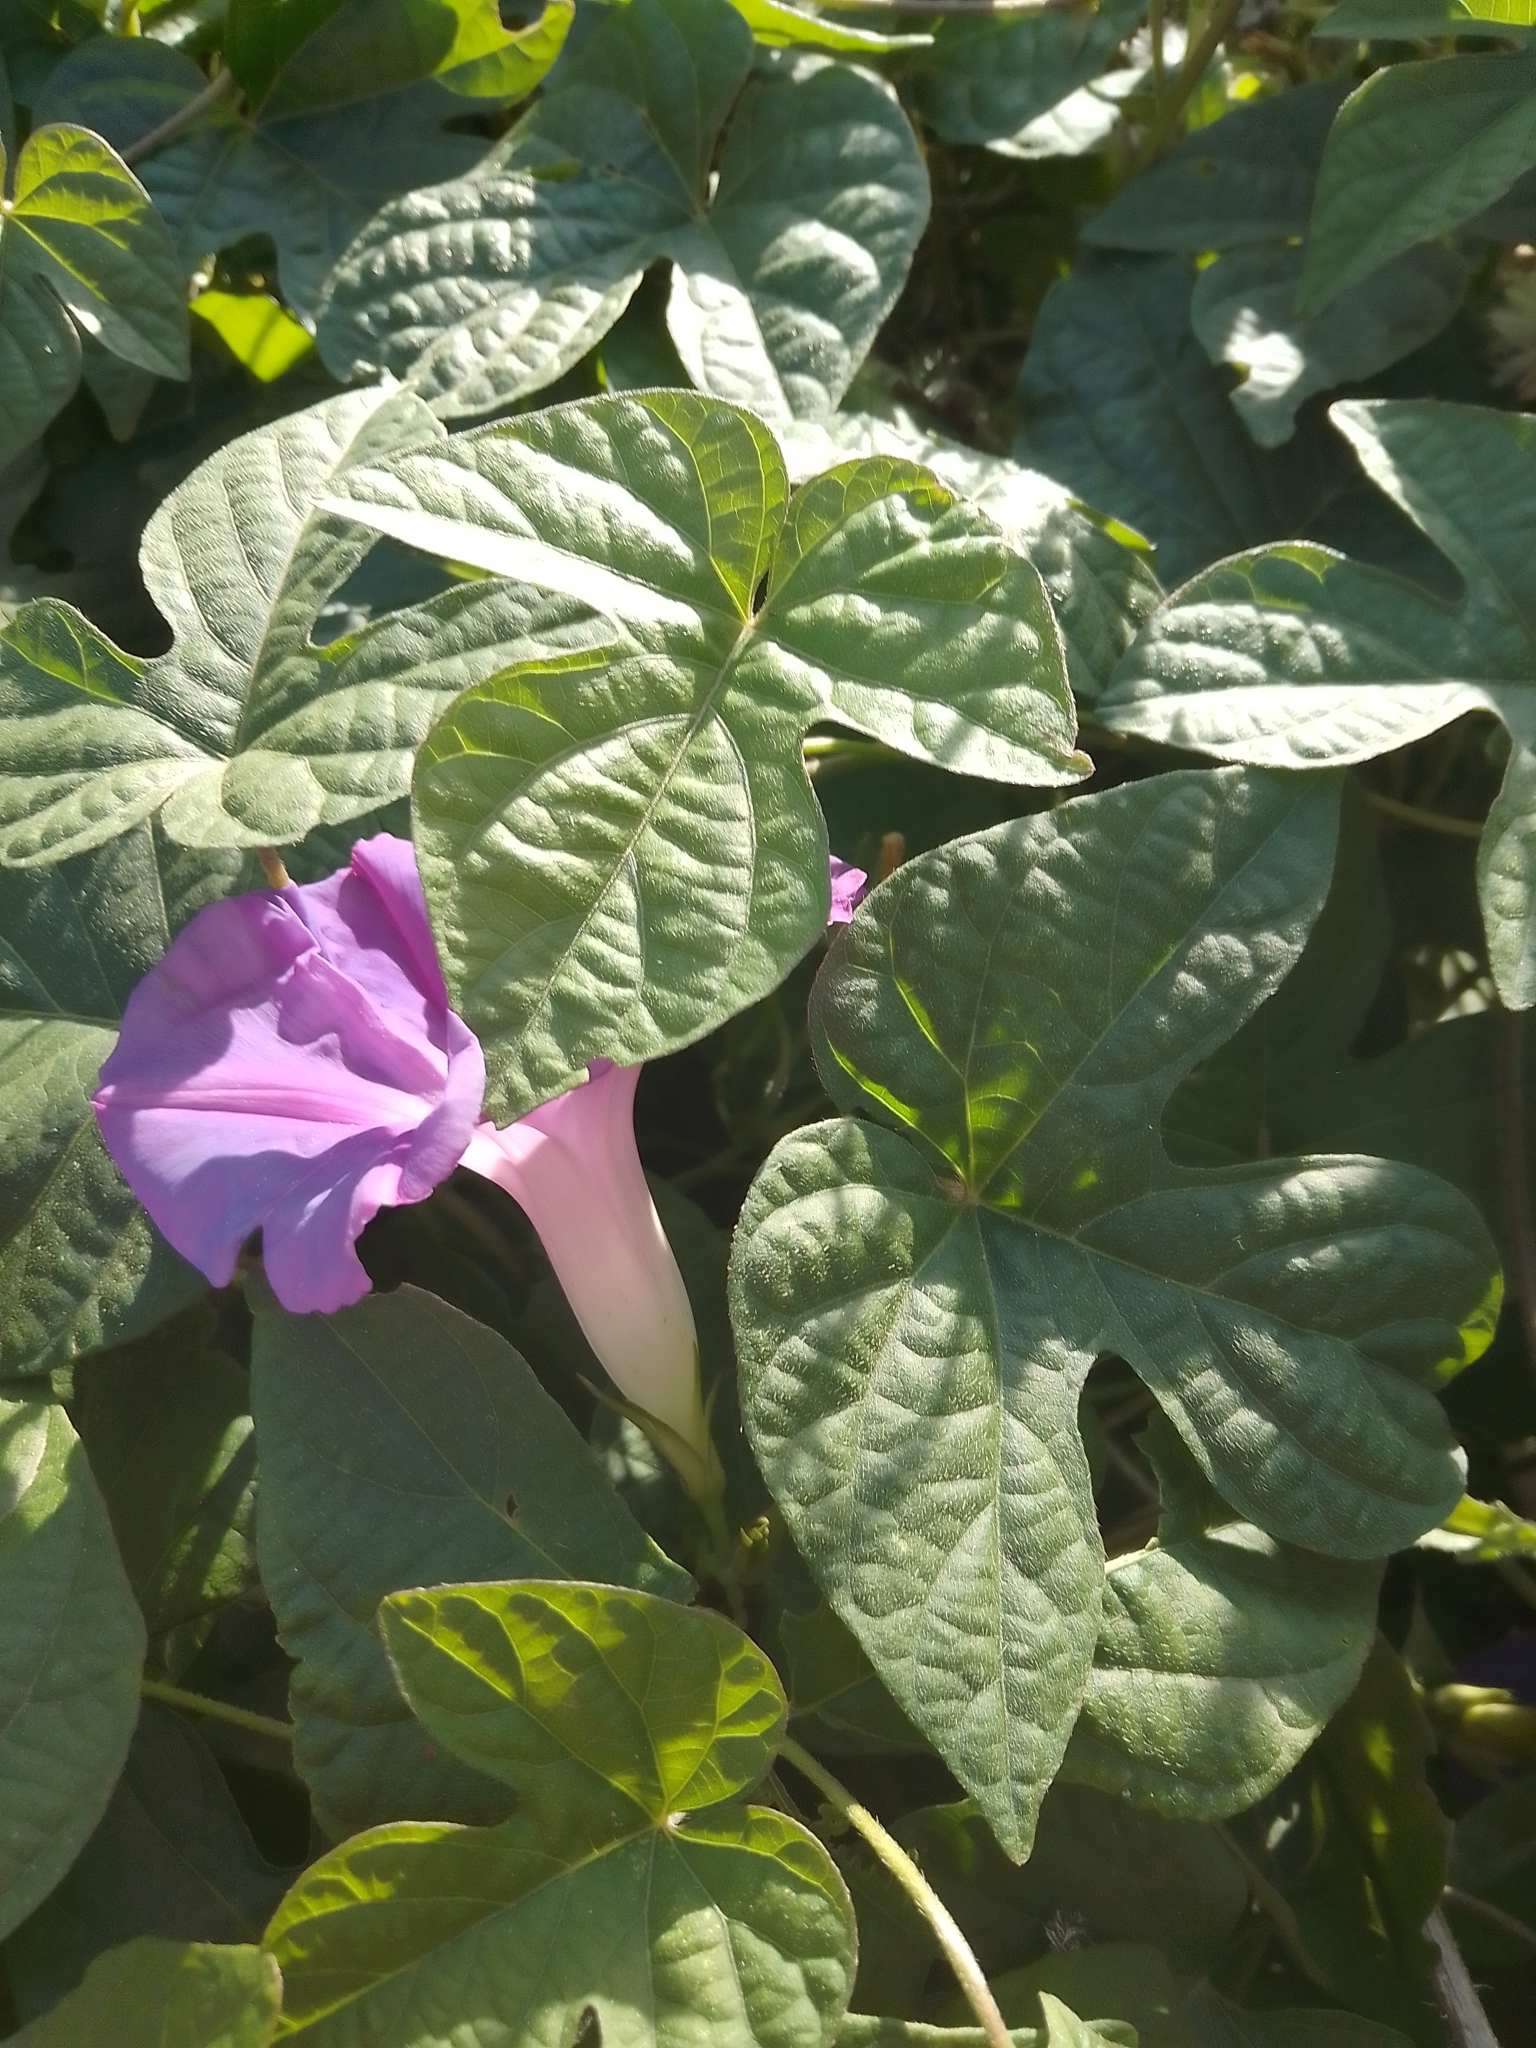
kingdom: Plantae
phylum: Tracheophyta
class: Magnoliopsida
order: Solanales
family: Convolvulaceae
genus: Ipomoea
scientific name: Ipomoea indica
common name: Blue dawnflower
